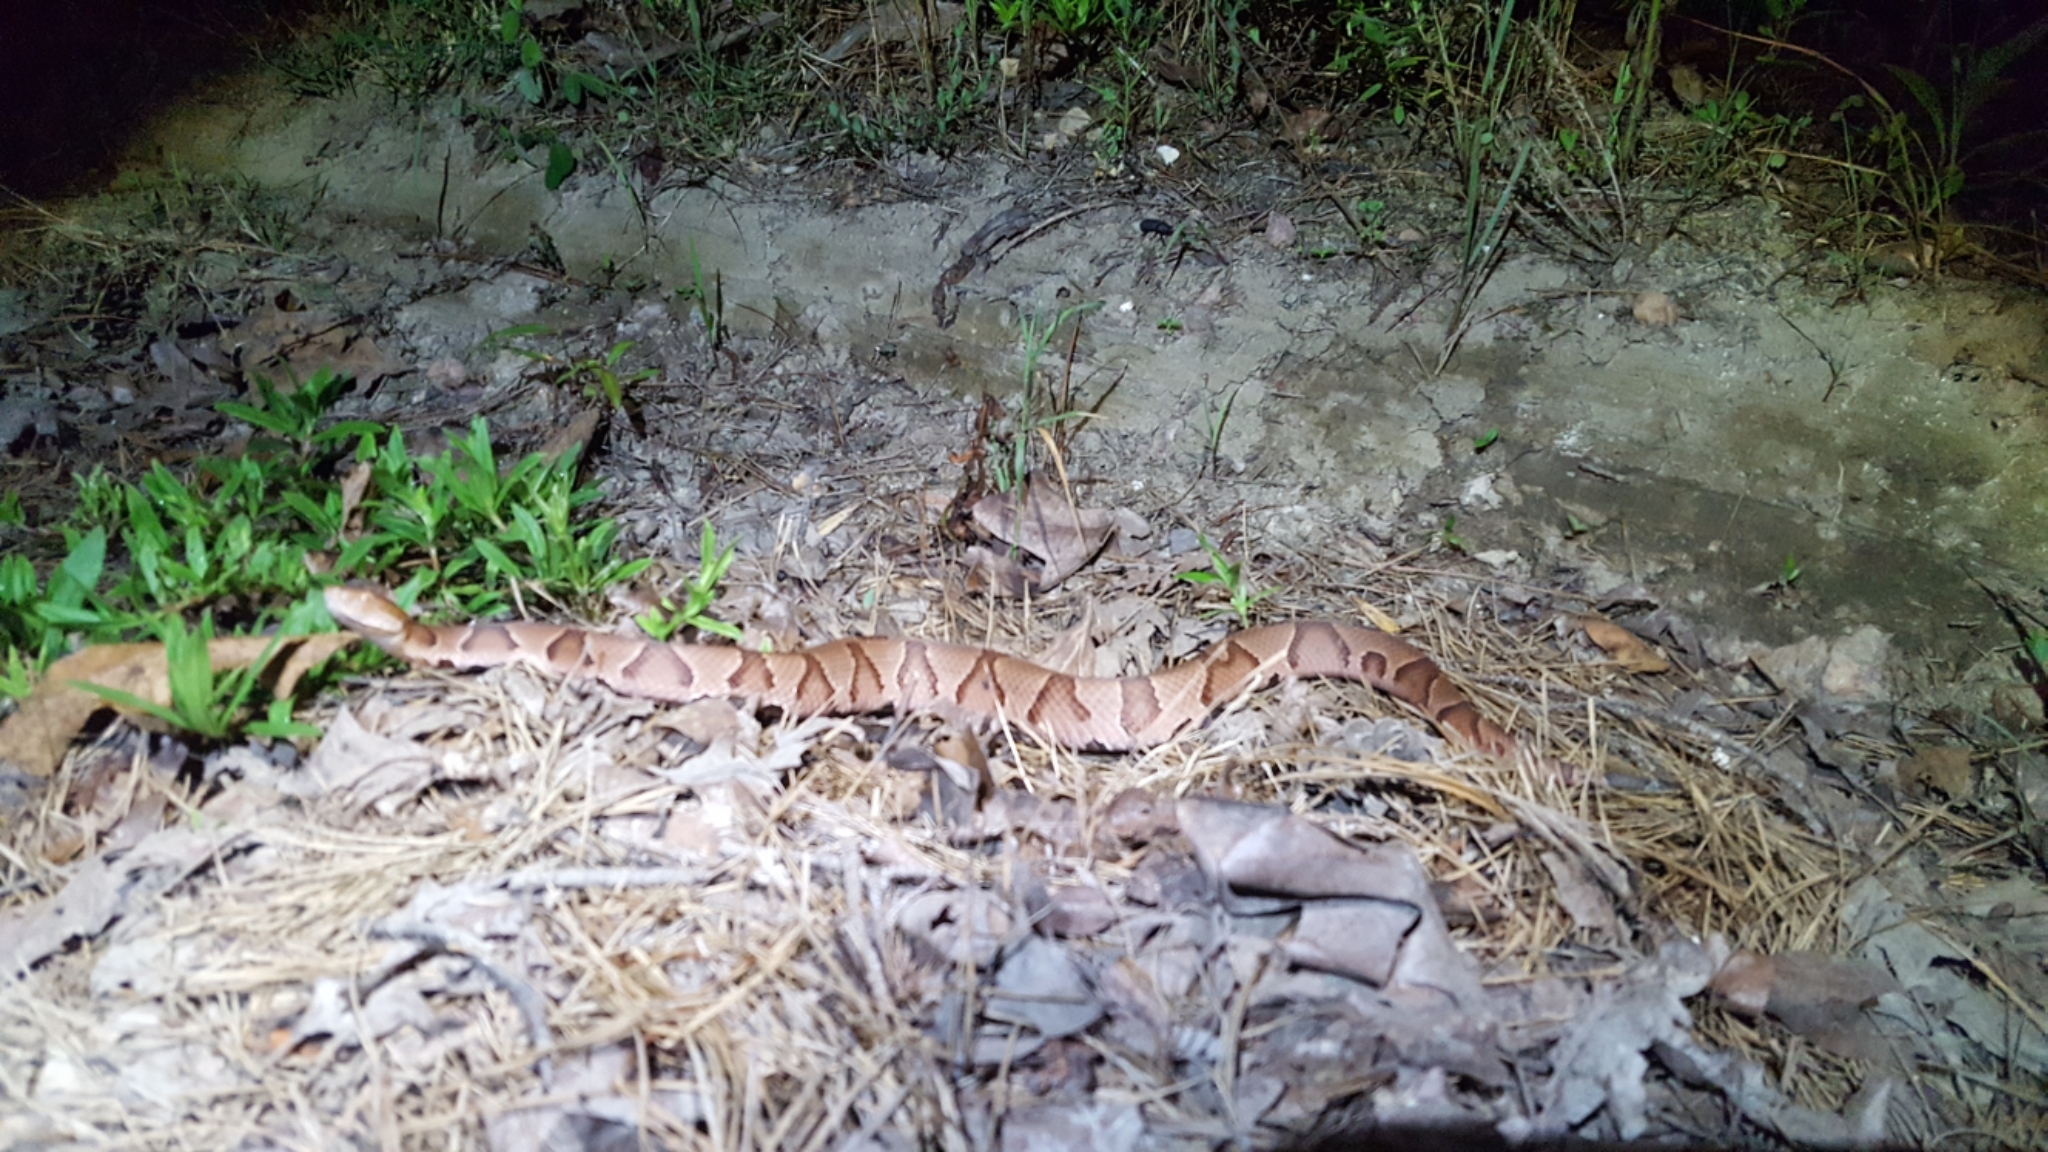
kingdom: Animalia
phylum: Chordata
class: Squamata
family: Viperidae
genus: Agkistrodon
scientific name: Agkistrodon contortrix
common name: Northern copperhead
